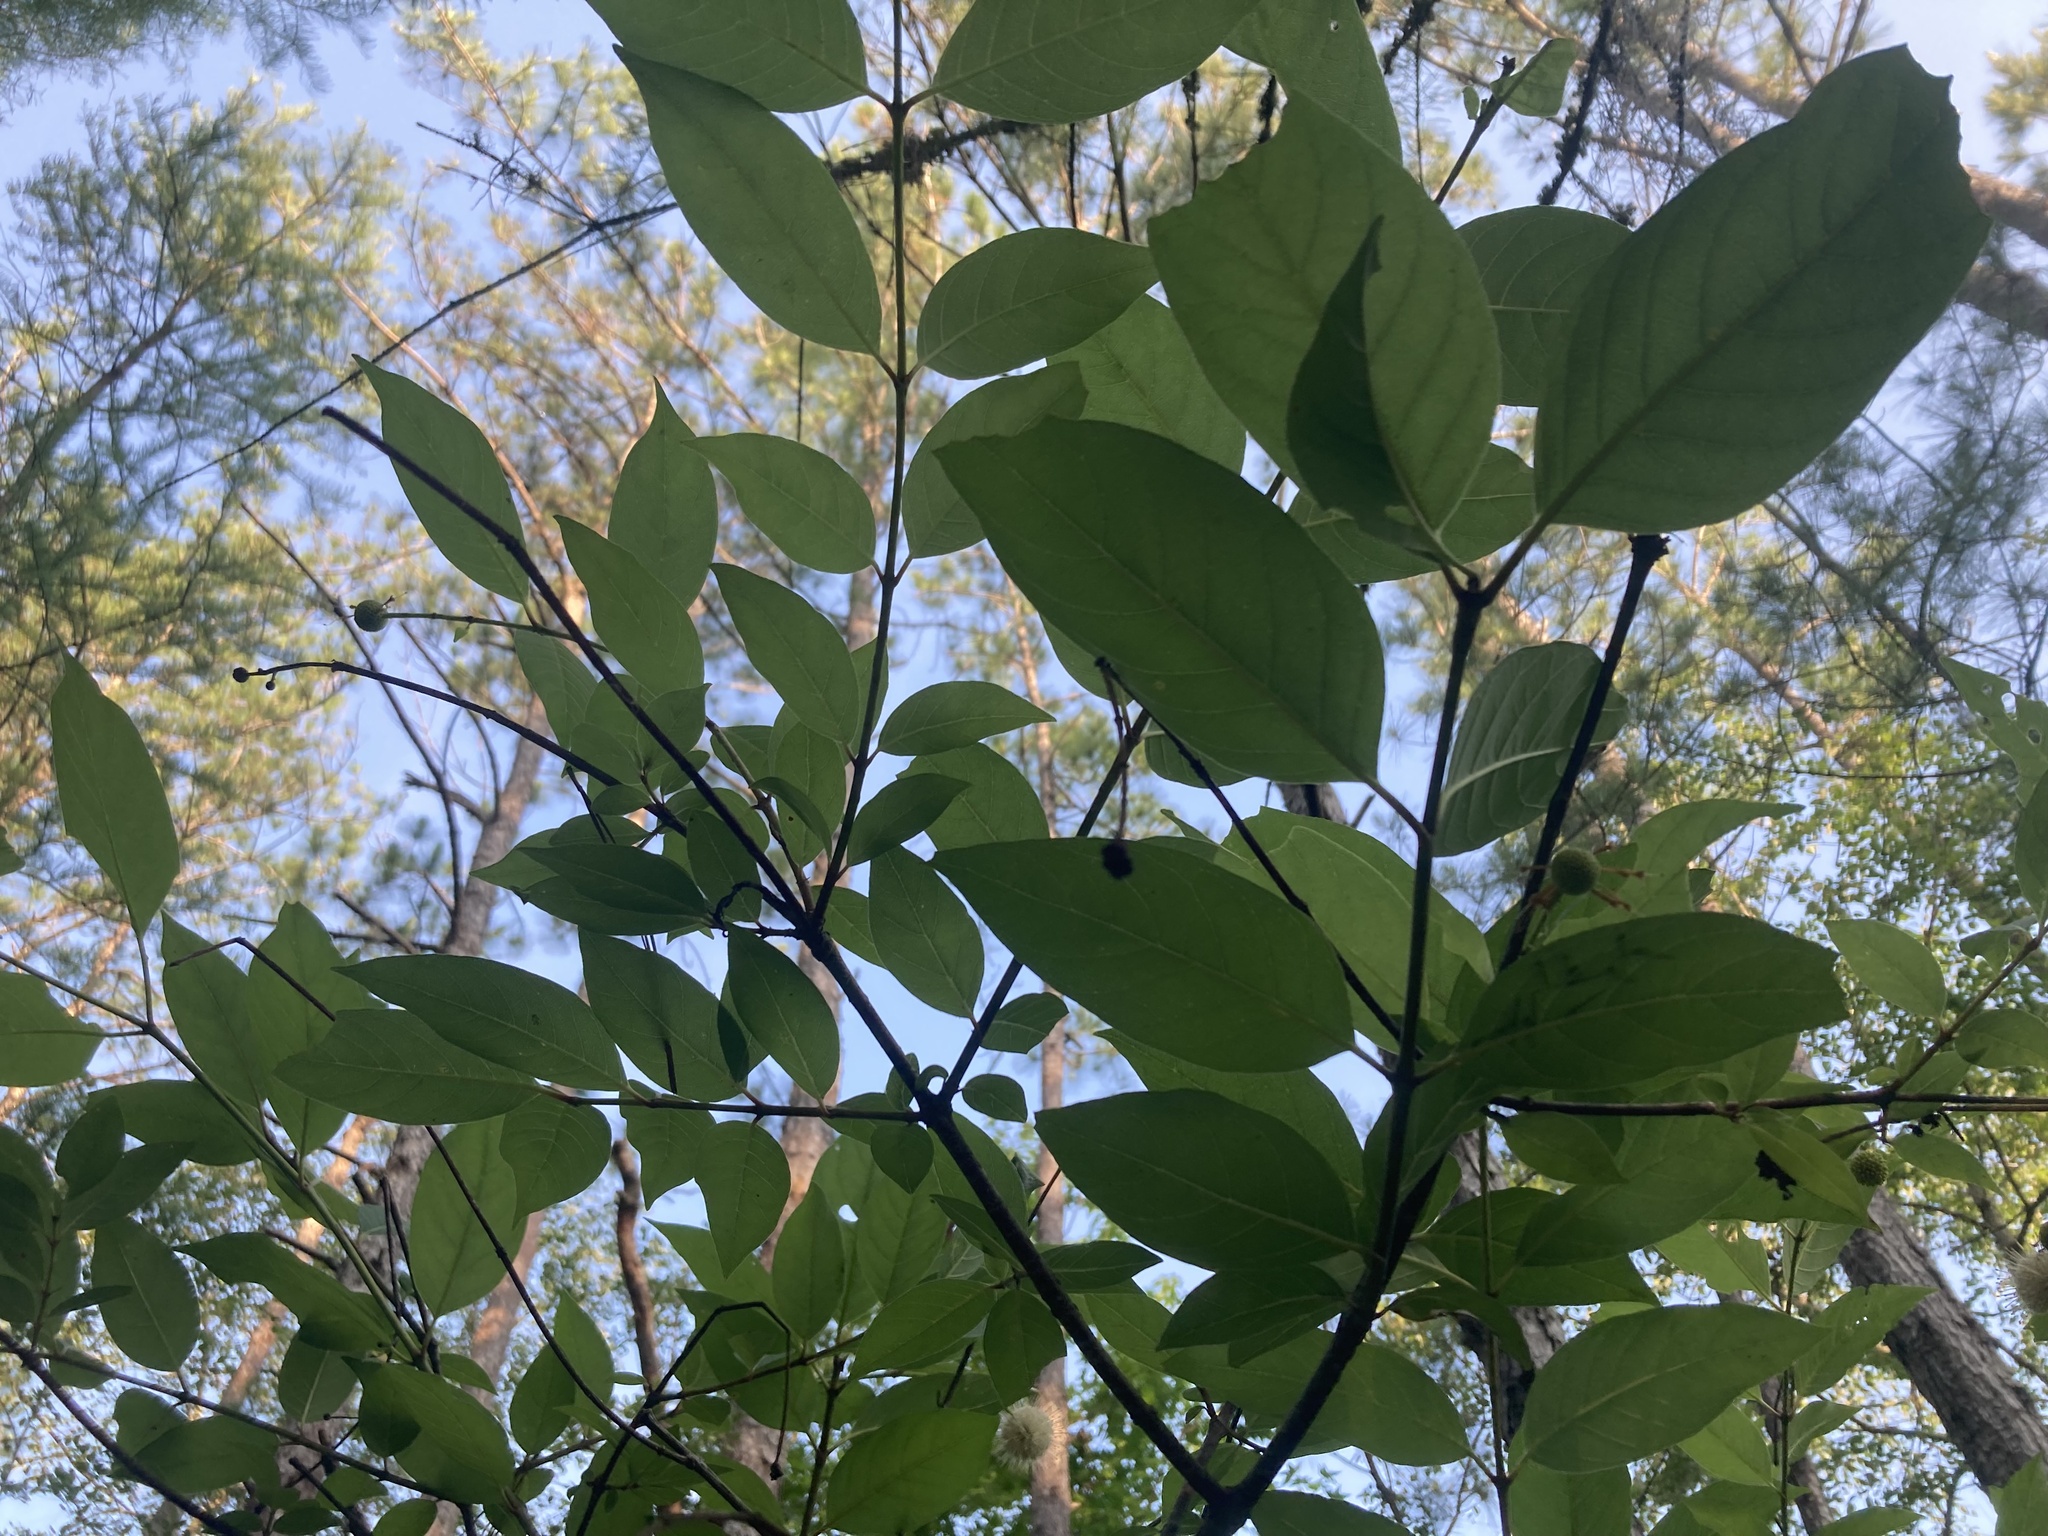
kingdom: Plantae
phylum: Tracheophyta
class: Magnoliopsida
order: Gentianales
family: Rubiaceae
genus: Cephalanthus
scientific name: Cephalanthus occidentalis
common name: Button-willow
